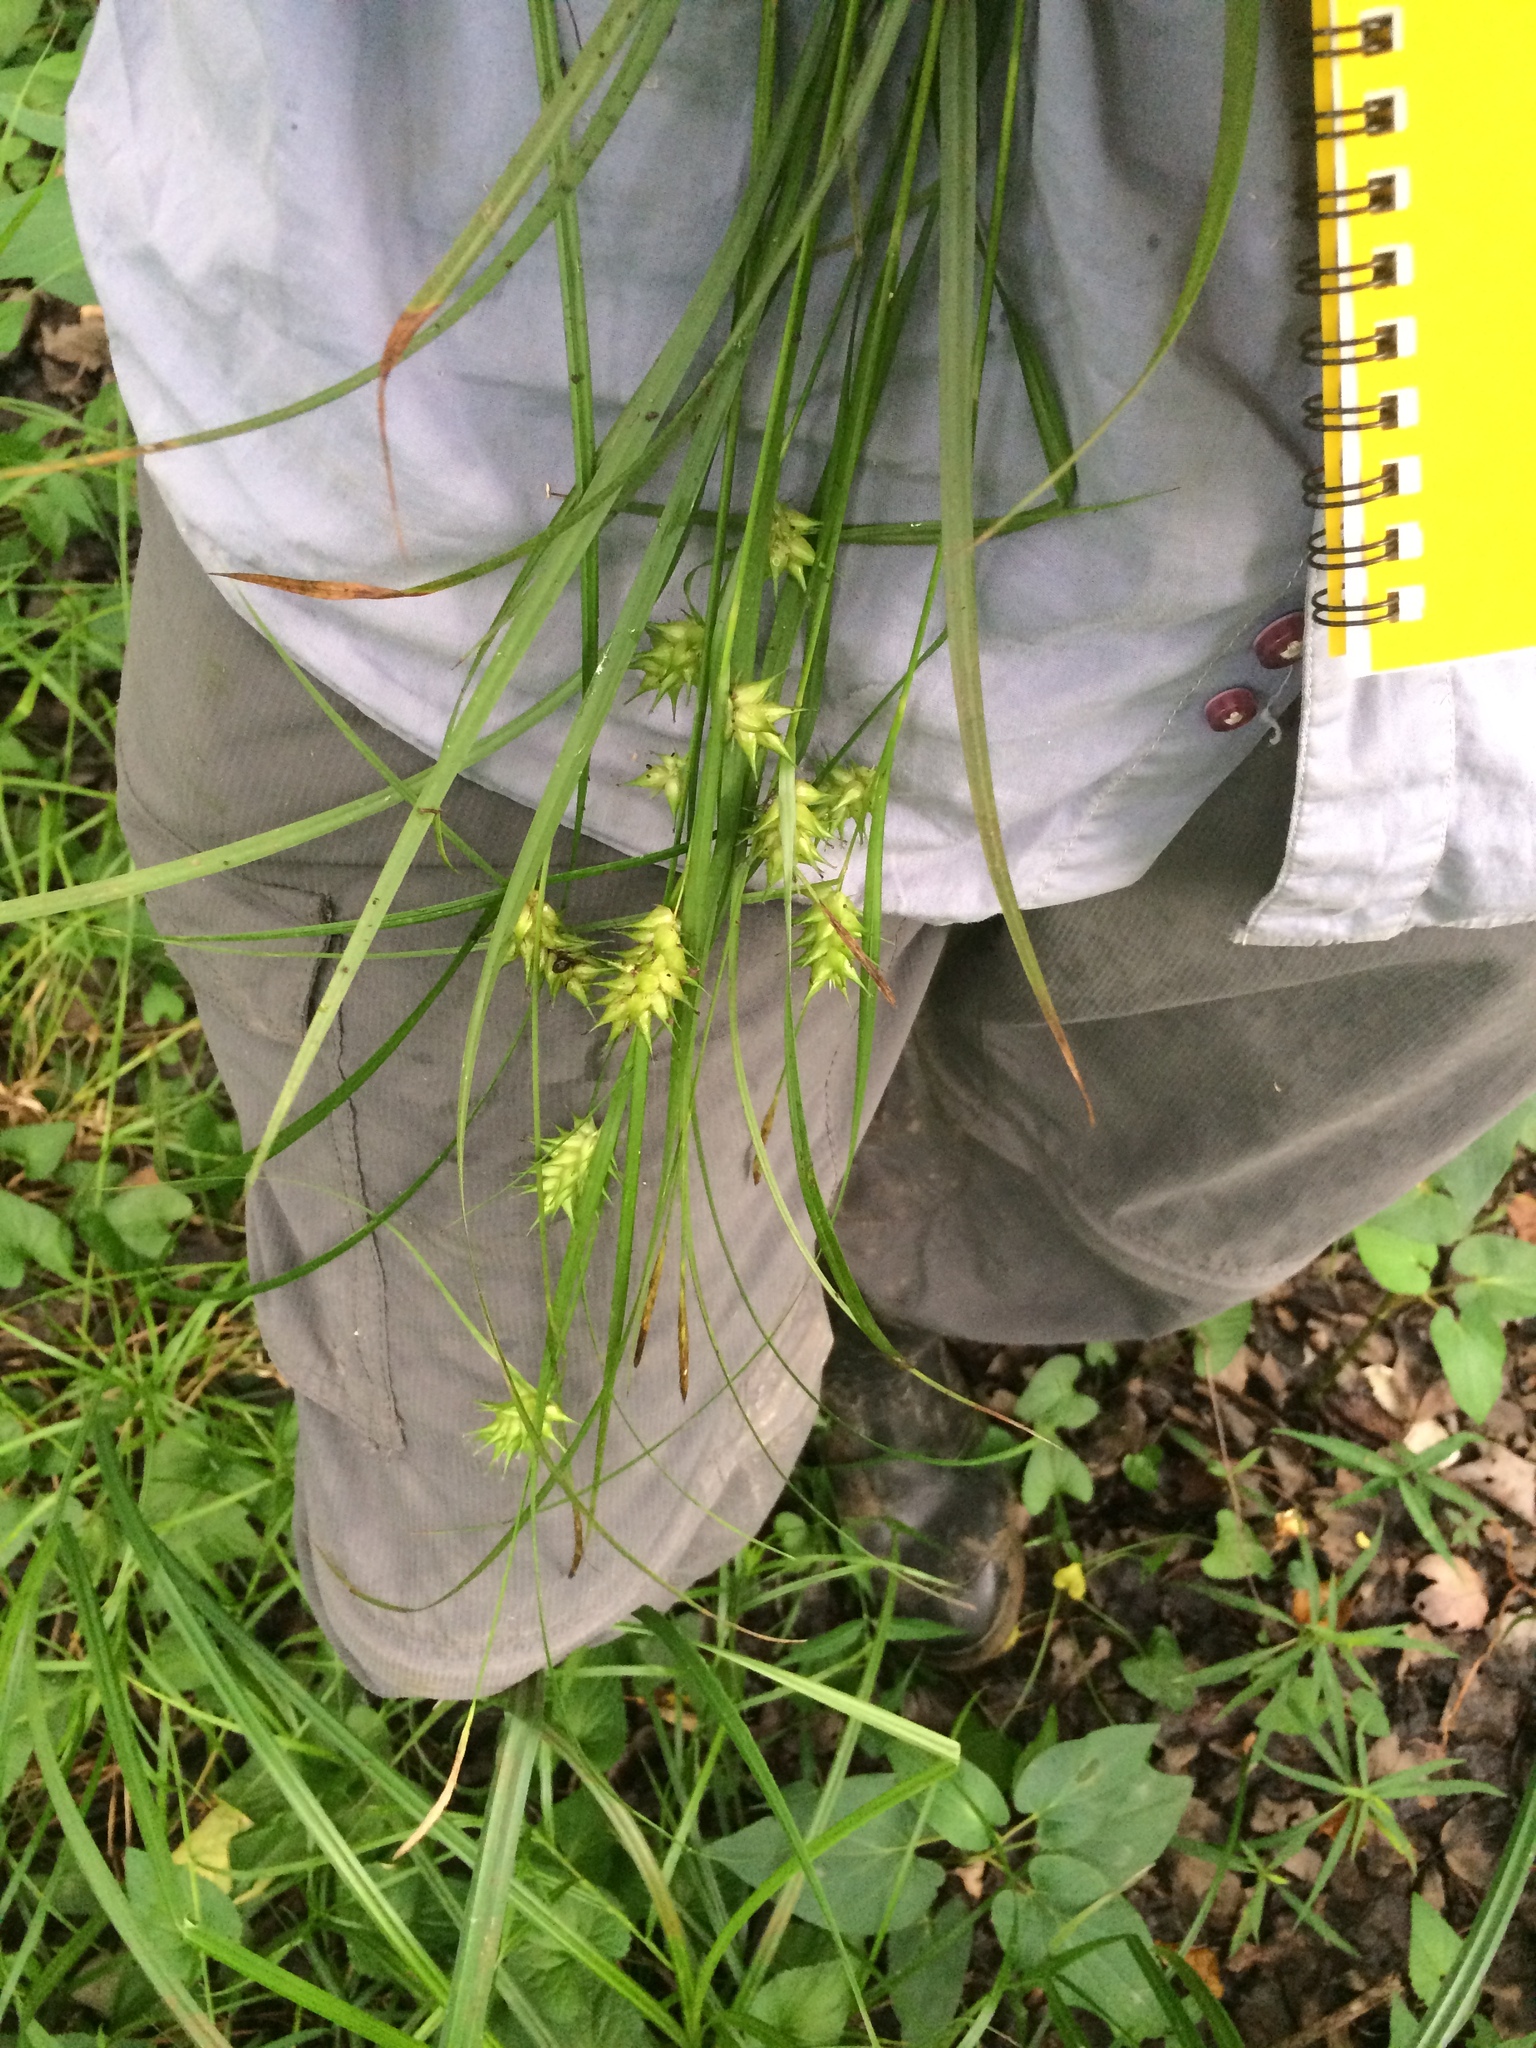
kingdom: Plantae
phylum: Tracheophyta
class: Liliopsida
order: Poales
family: Cyperaceae
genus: Carex
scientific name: Carex louisianica
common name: Louisiana sedge
